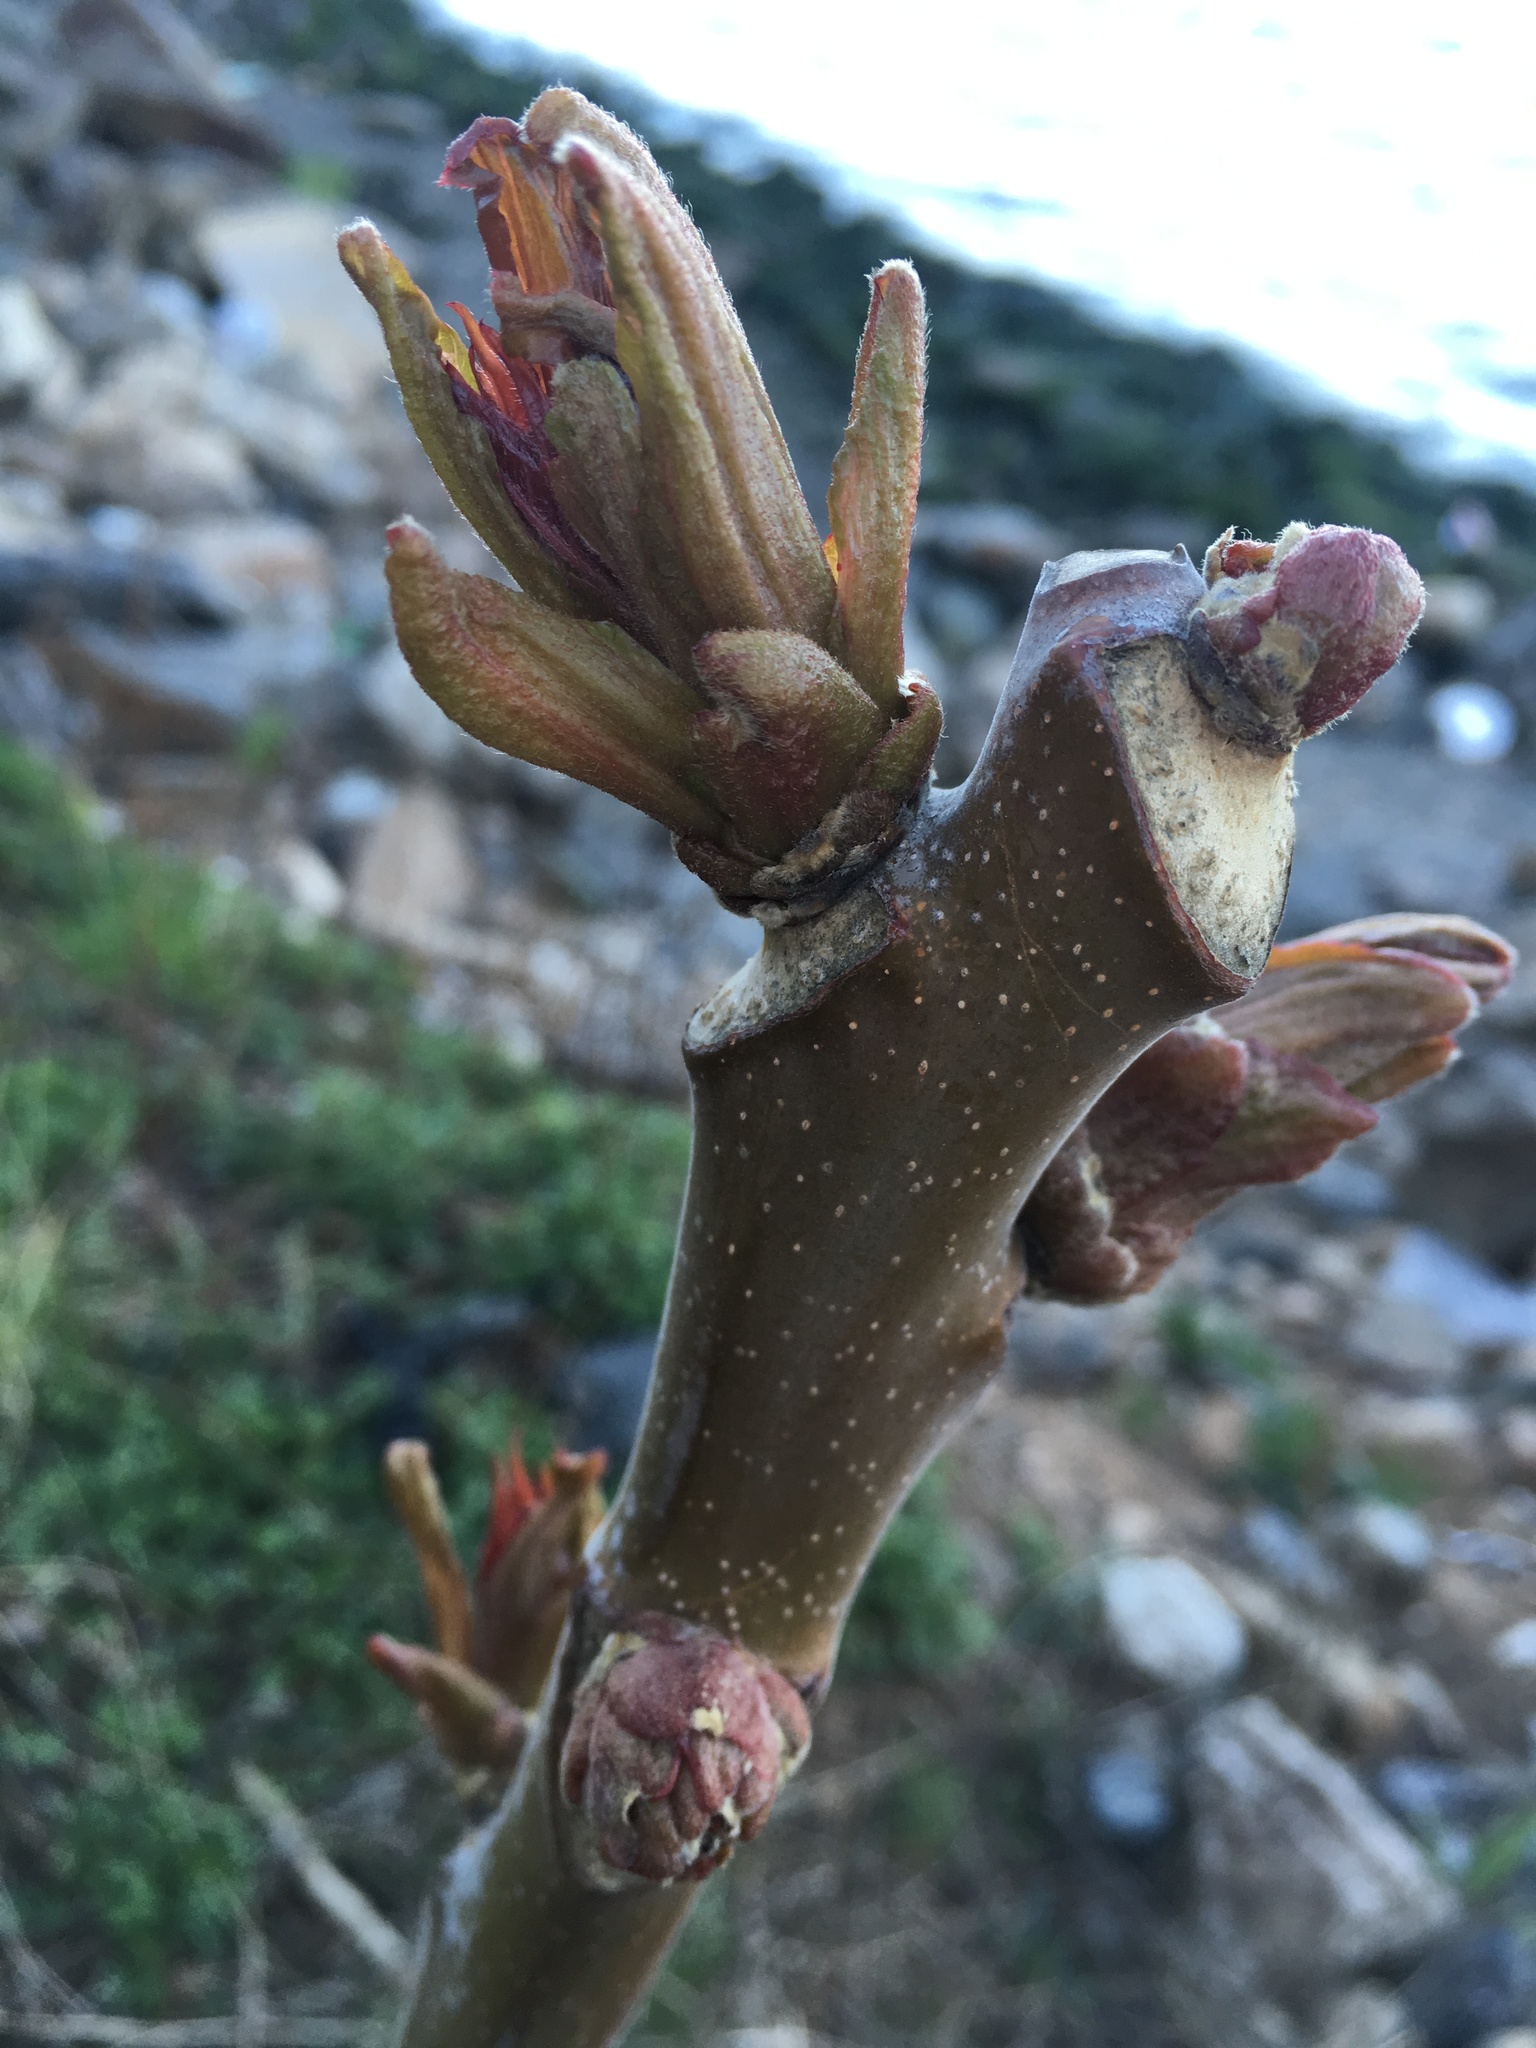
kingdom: Plantae
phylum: Tracheophyta
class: Magnoliopsida
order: Sapindales
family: Simaroubaceae
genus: Ailanthus
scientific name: Ailanthus altissima
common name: Tree-of-heaven
